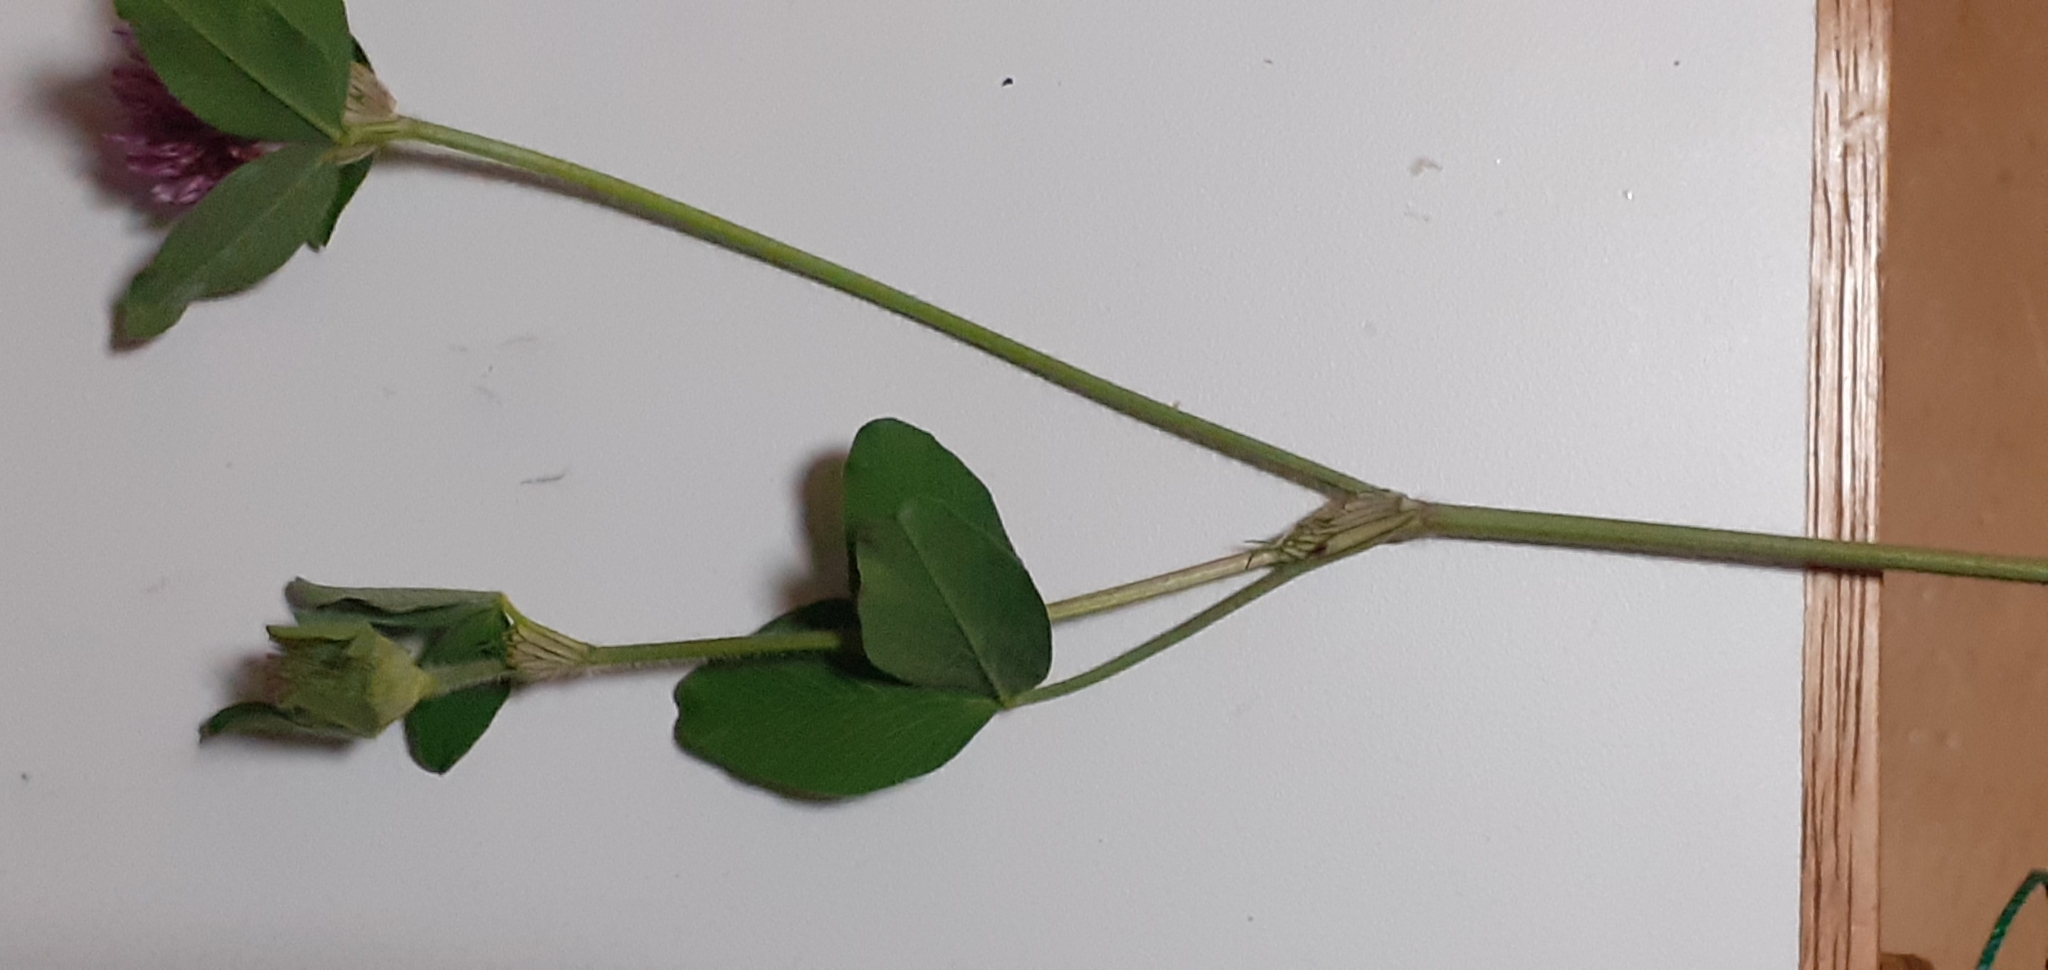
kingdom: Plantae
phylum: Tracheophyta
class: Magnoliopsida
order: Fabales
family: Fabaceae
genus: Trifolium
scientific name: Trifolium pratense
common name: Red clover
